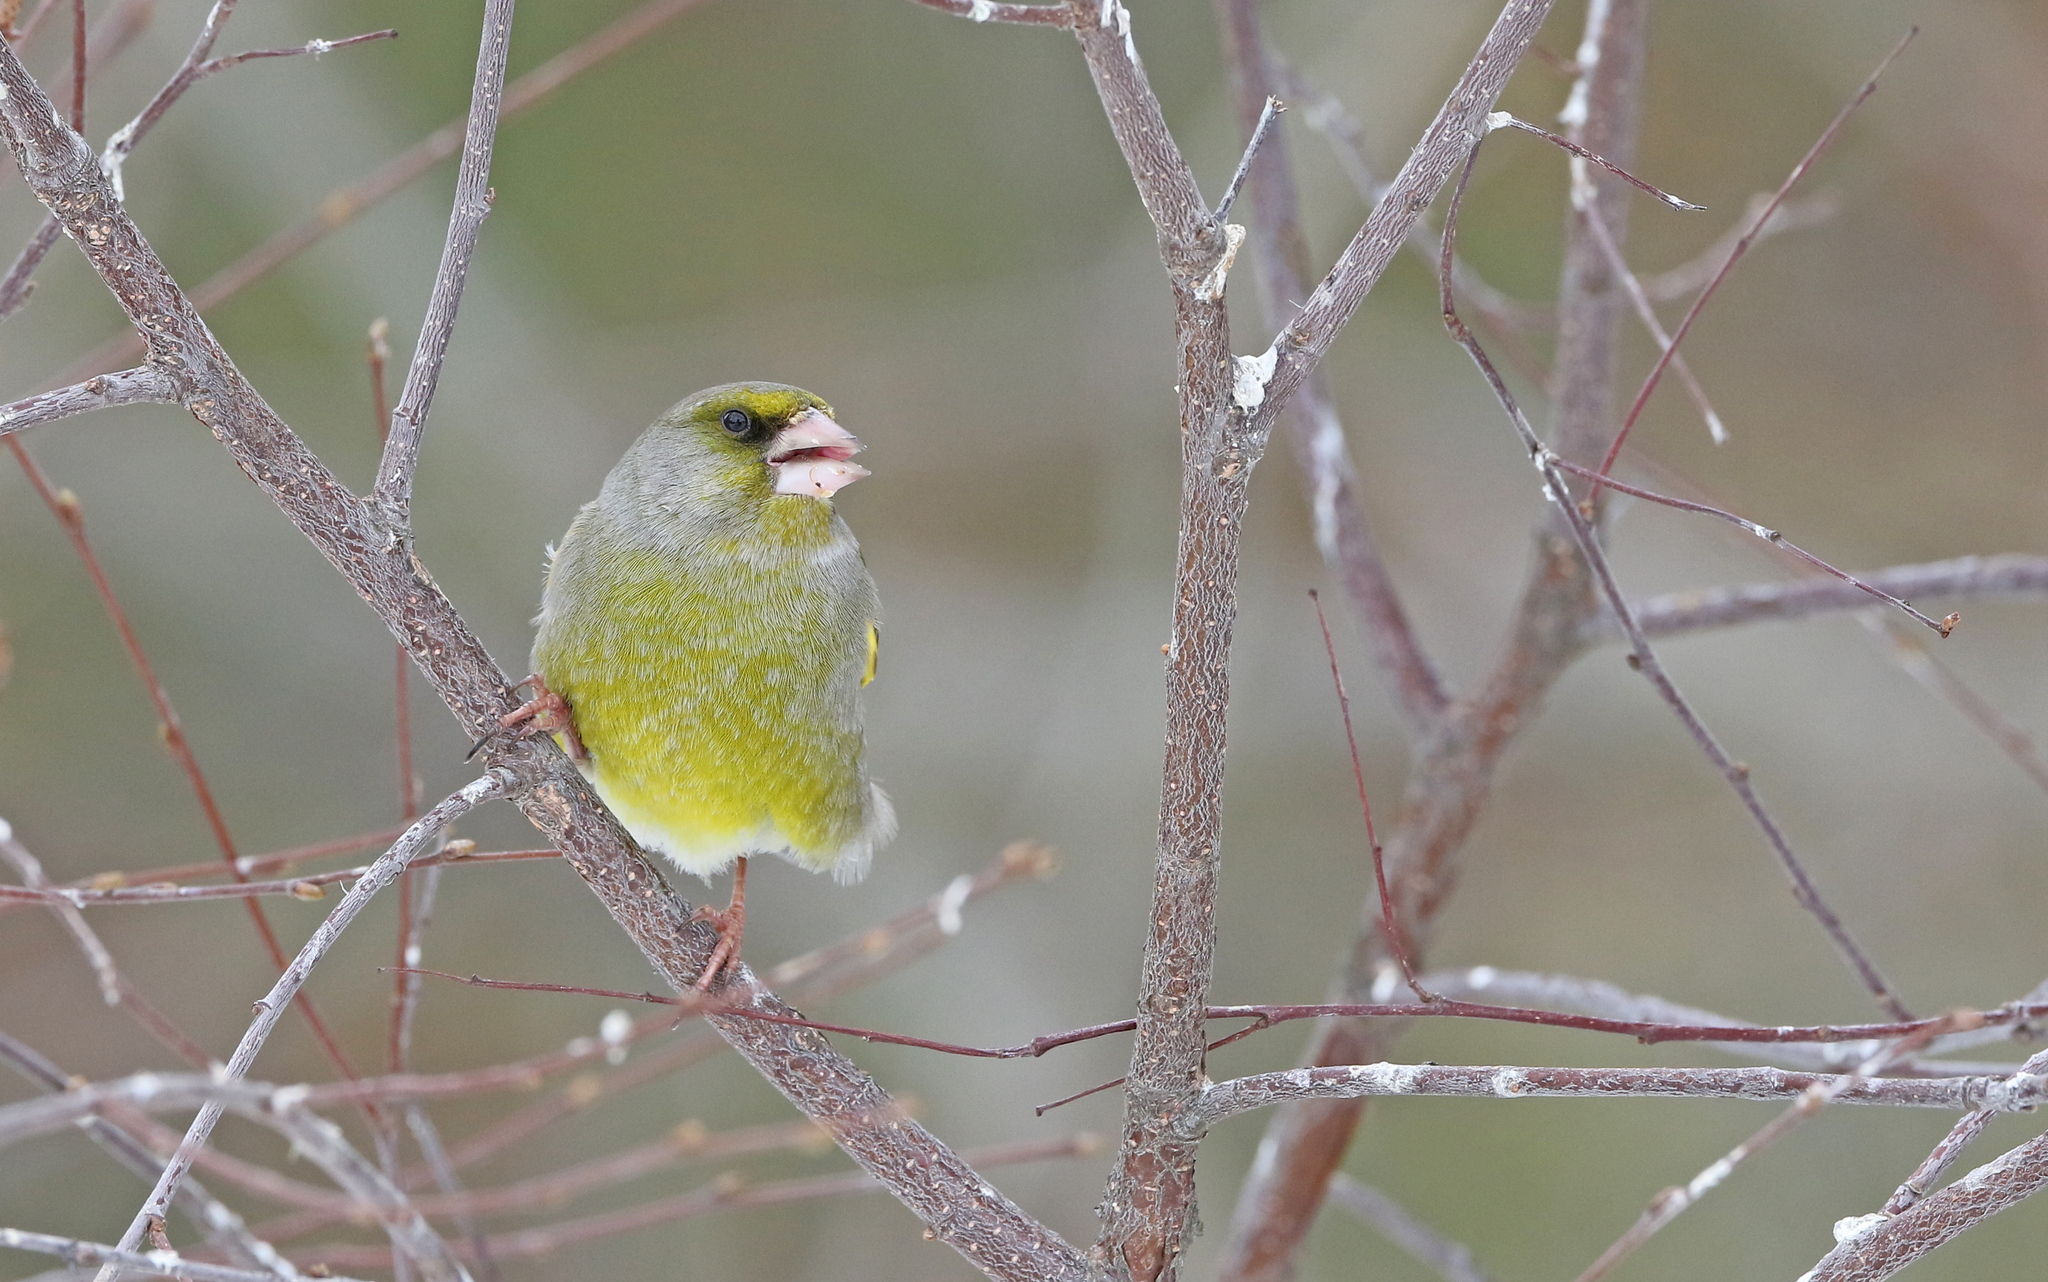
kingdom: Plantae
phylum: Tracheophyta
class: Liliopsida
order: Poales
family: Poaceae
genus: Chloris
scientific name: Chloris chloris
